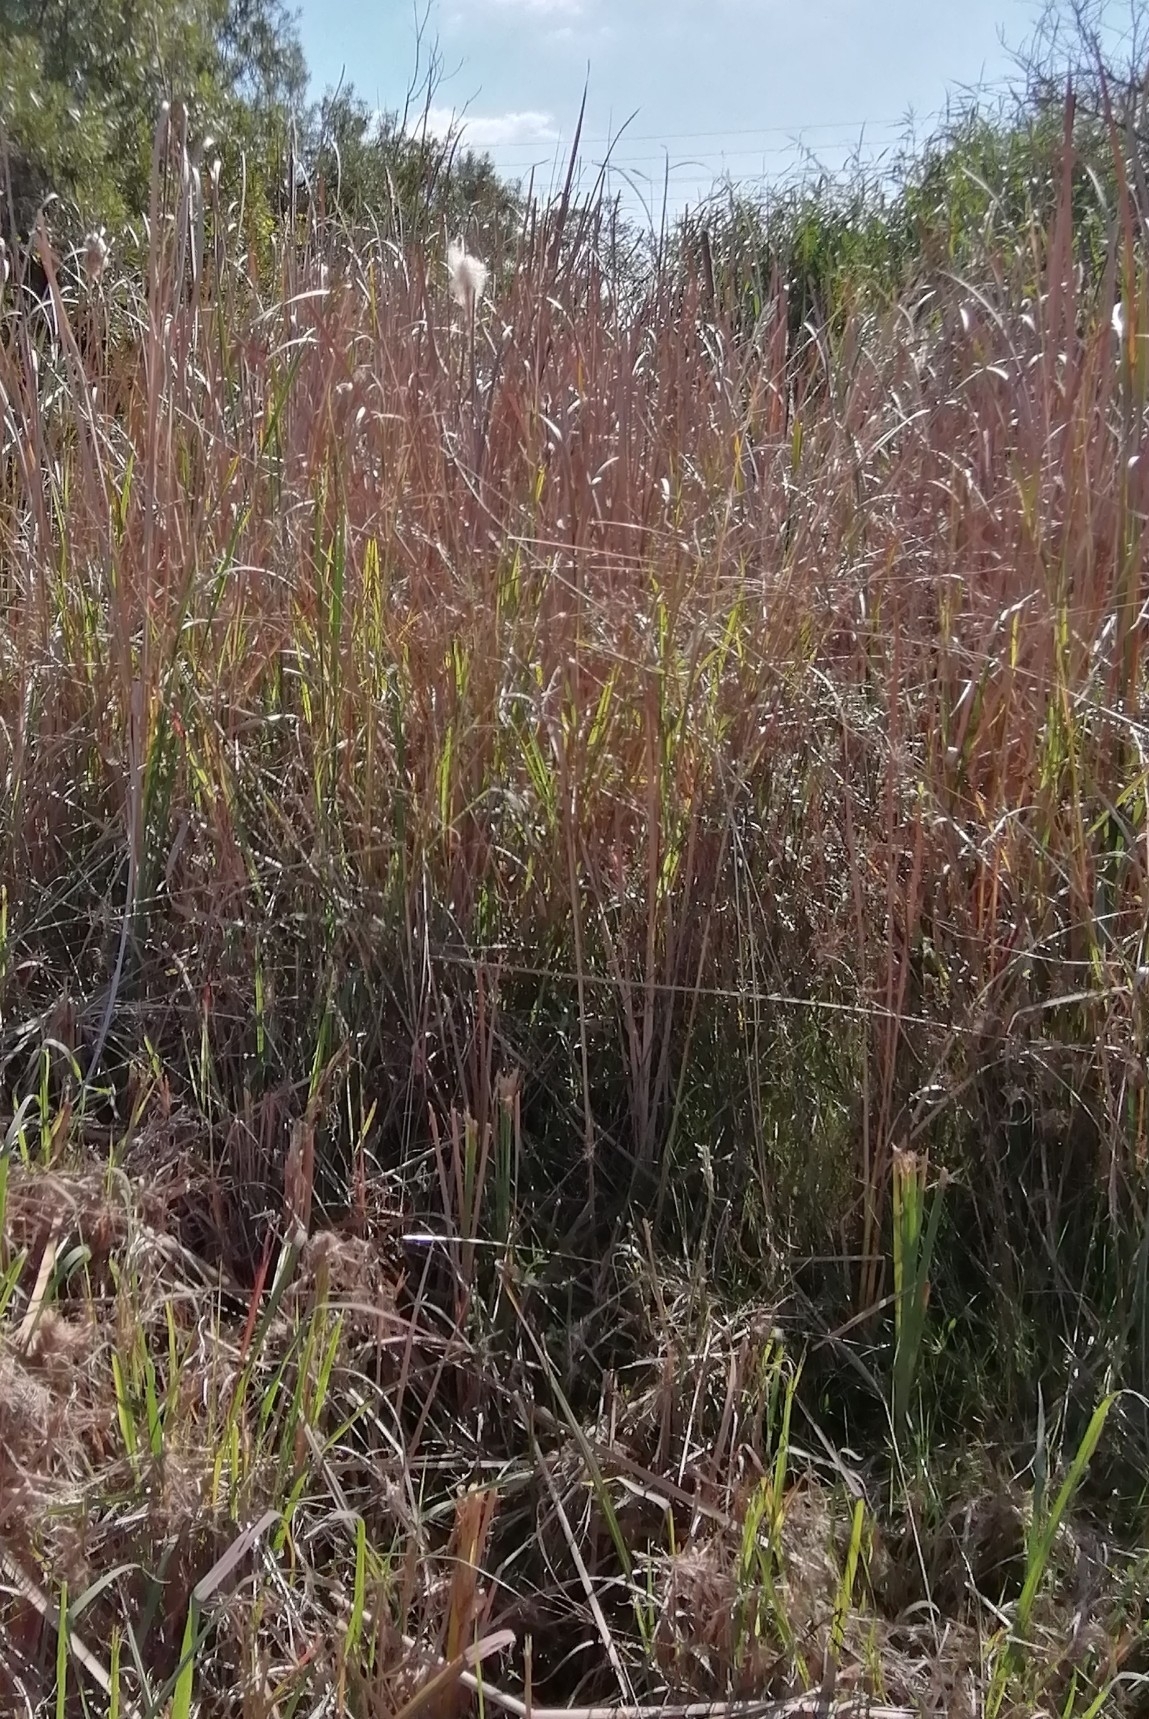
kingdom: Plantae
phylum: Tracheophyta
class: Liliopsida
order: Poales
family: Typhaceae
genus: Typha
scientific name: Typha capensis
